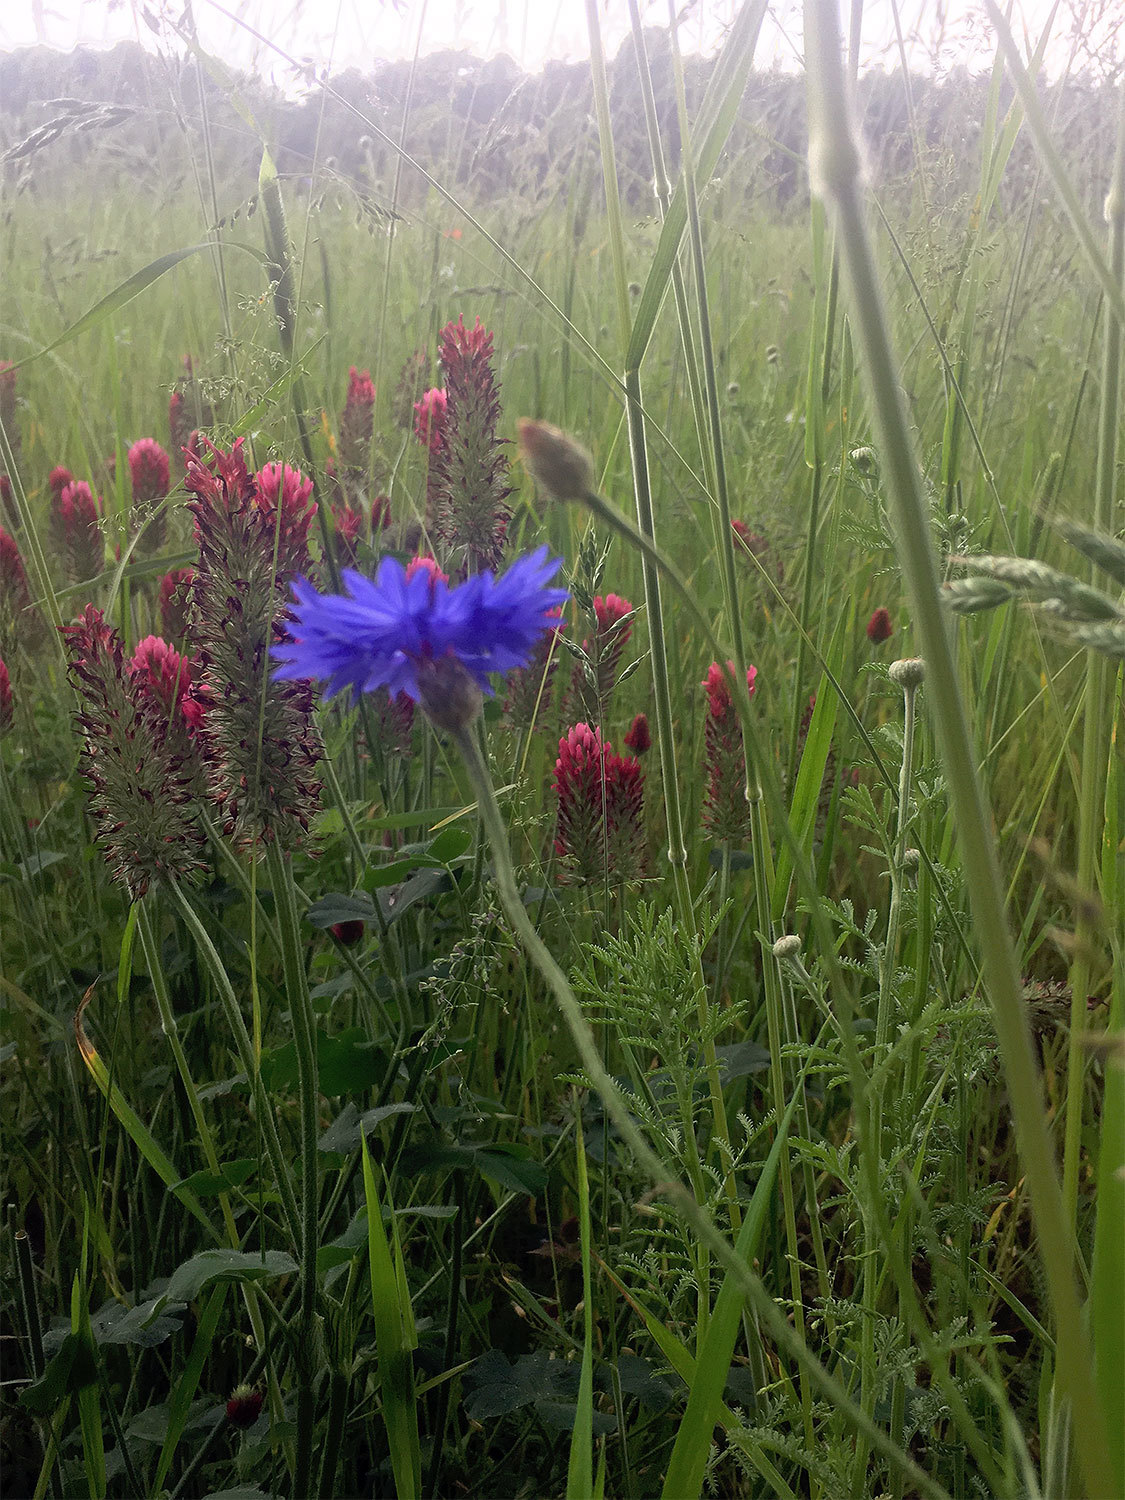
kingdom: Plantae
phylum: Tracheophyta
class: Magnoliopsida
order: Fabales
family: Fabaceae
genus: Trifolium
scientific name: Trifolium incarnatum
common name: Crimson clover
